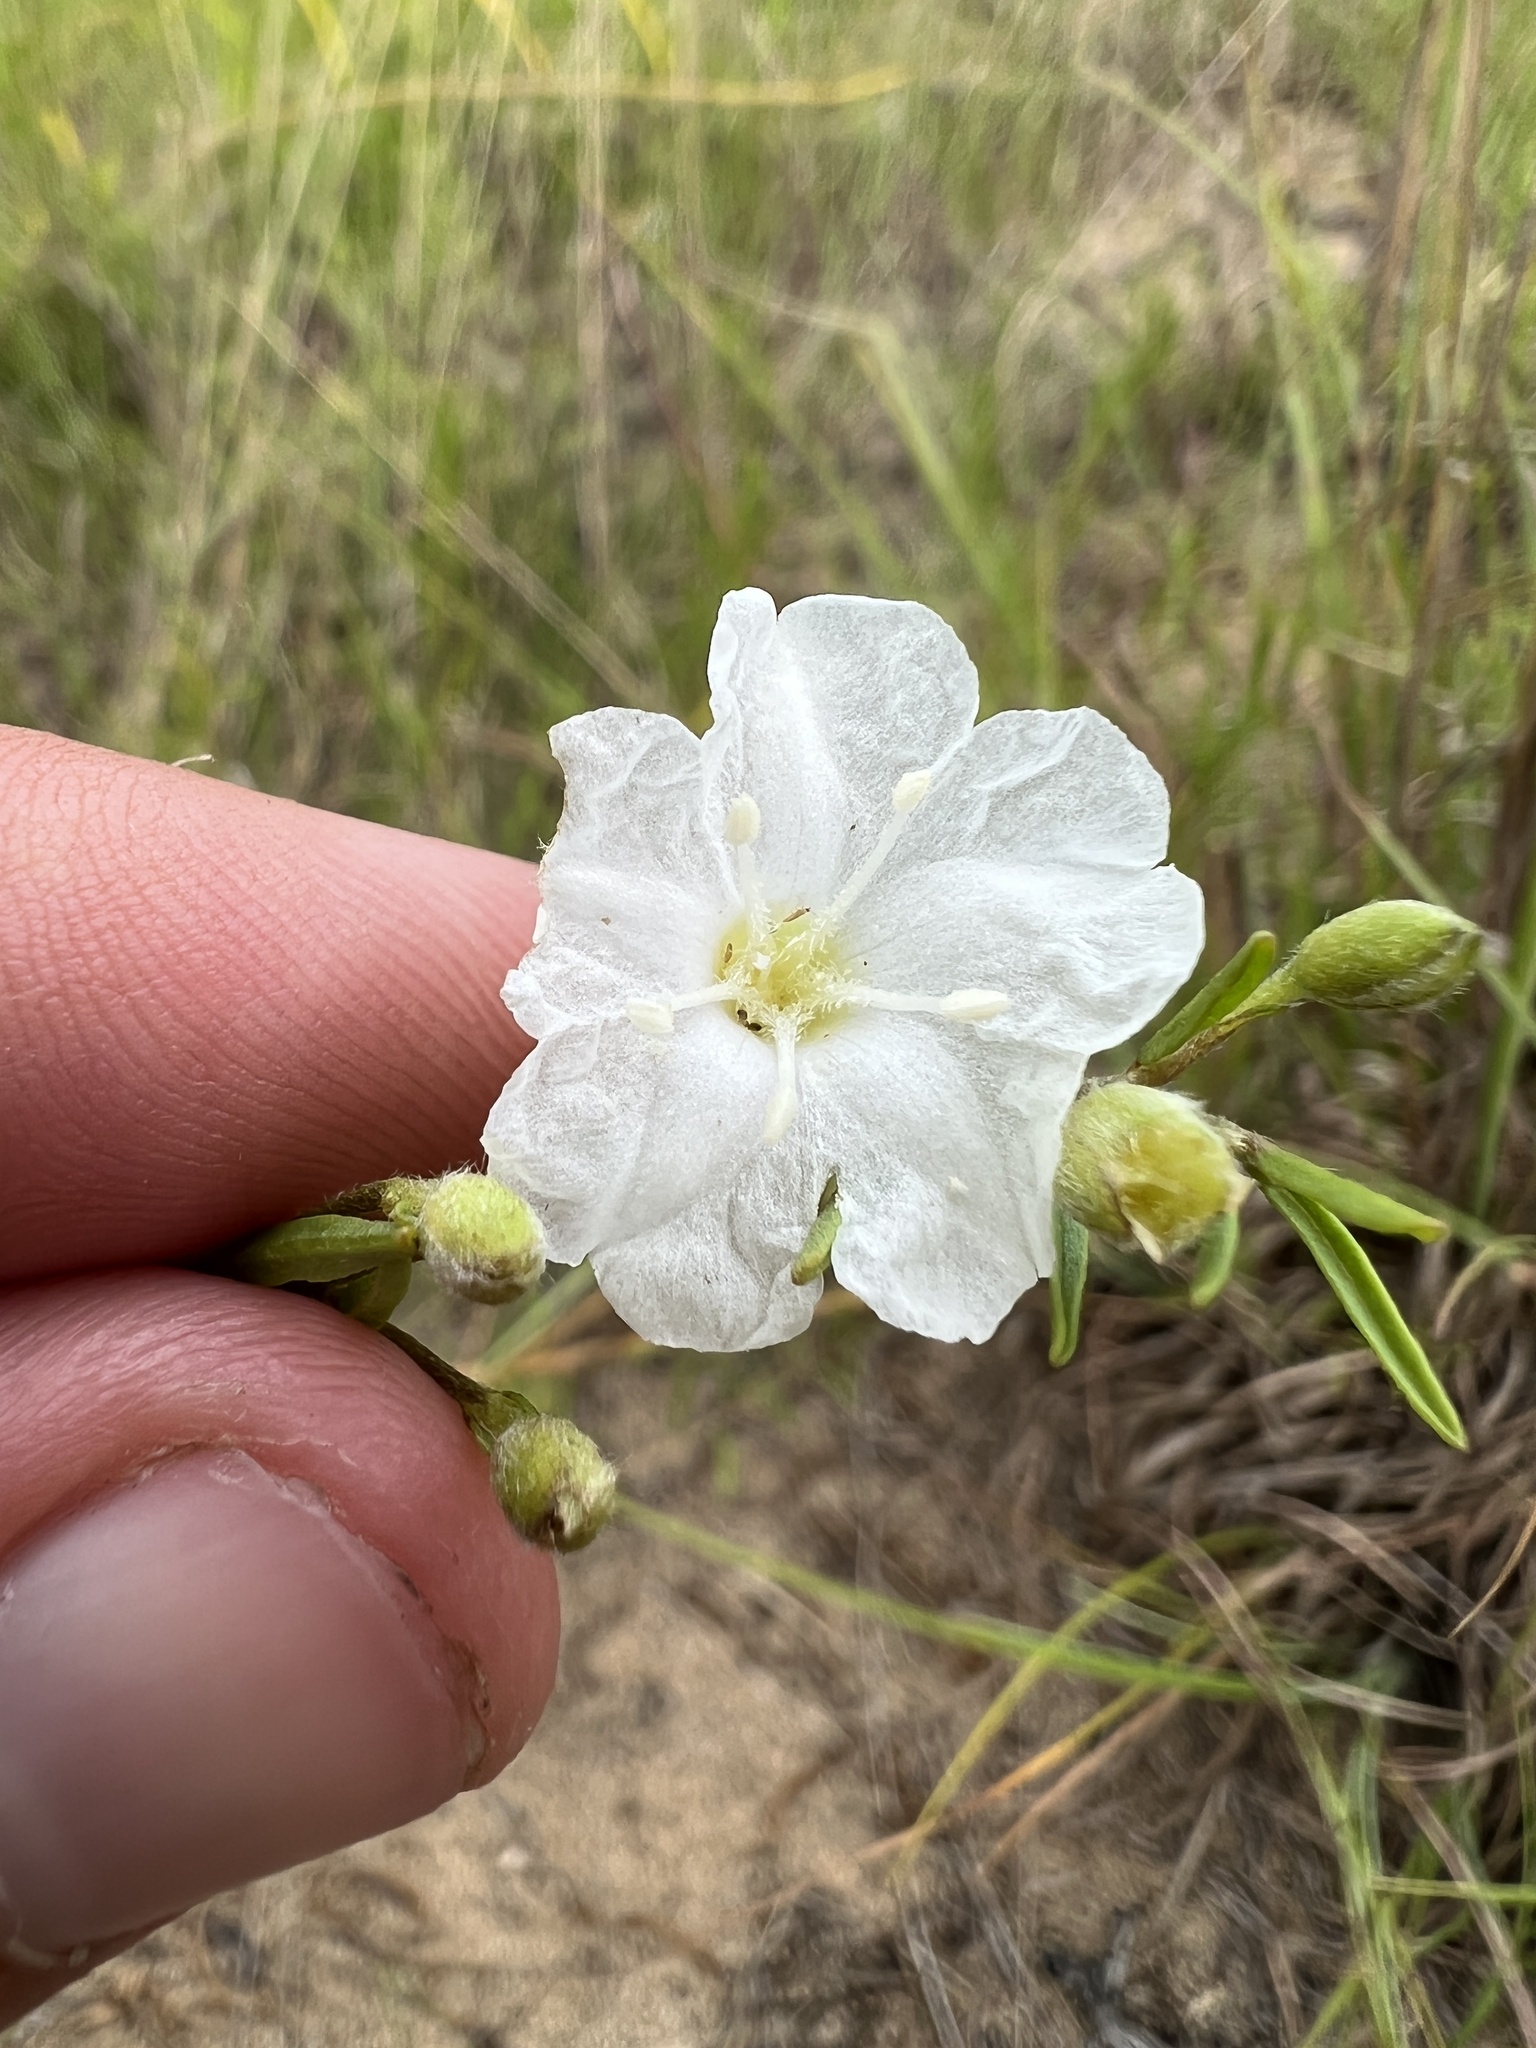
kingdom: Plantae
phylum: Tracheophyta
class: Magnoliopsida
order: Solanales
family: Convolvulaceae
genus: Stylisma
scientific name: Stylisma pickeringii
